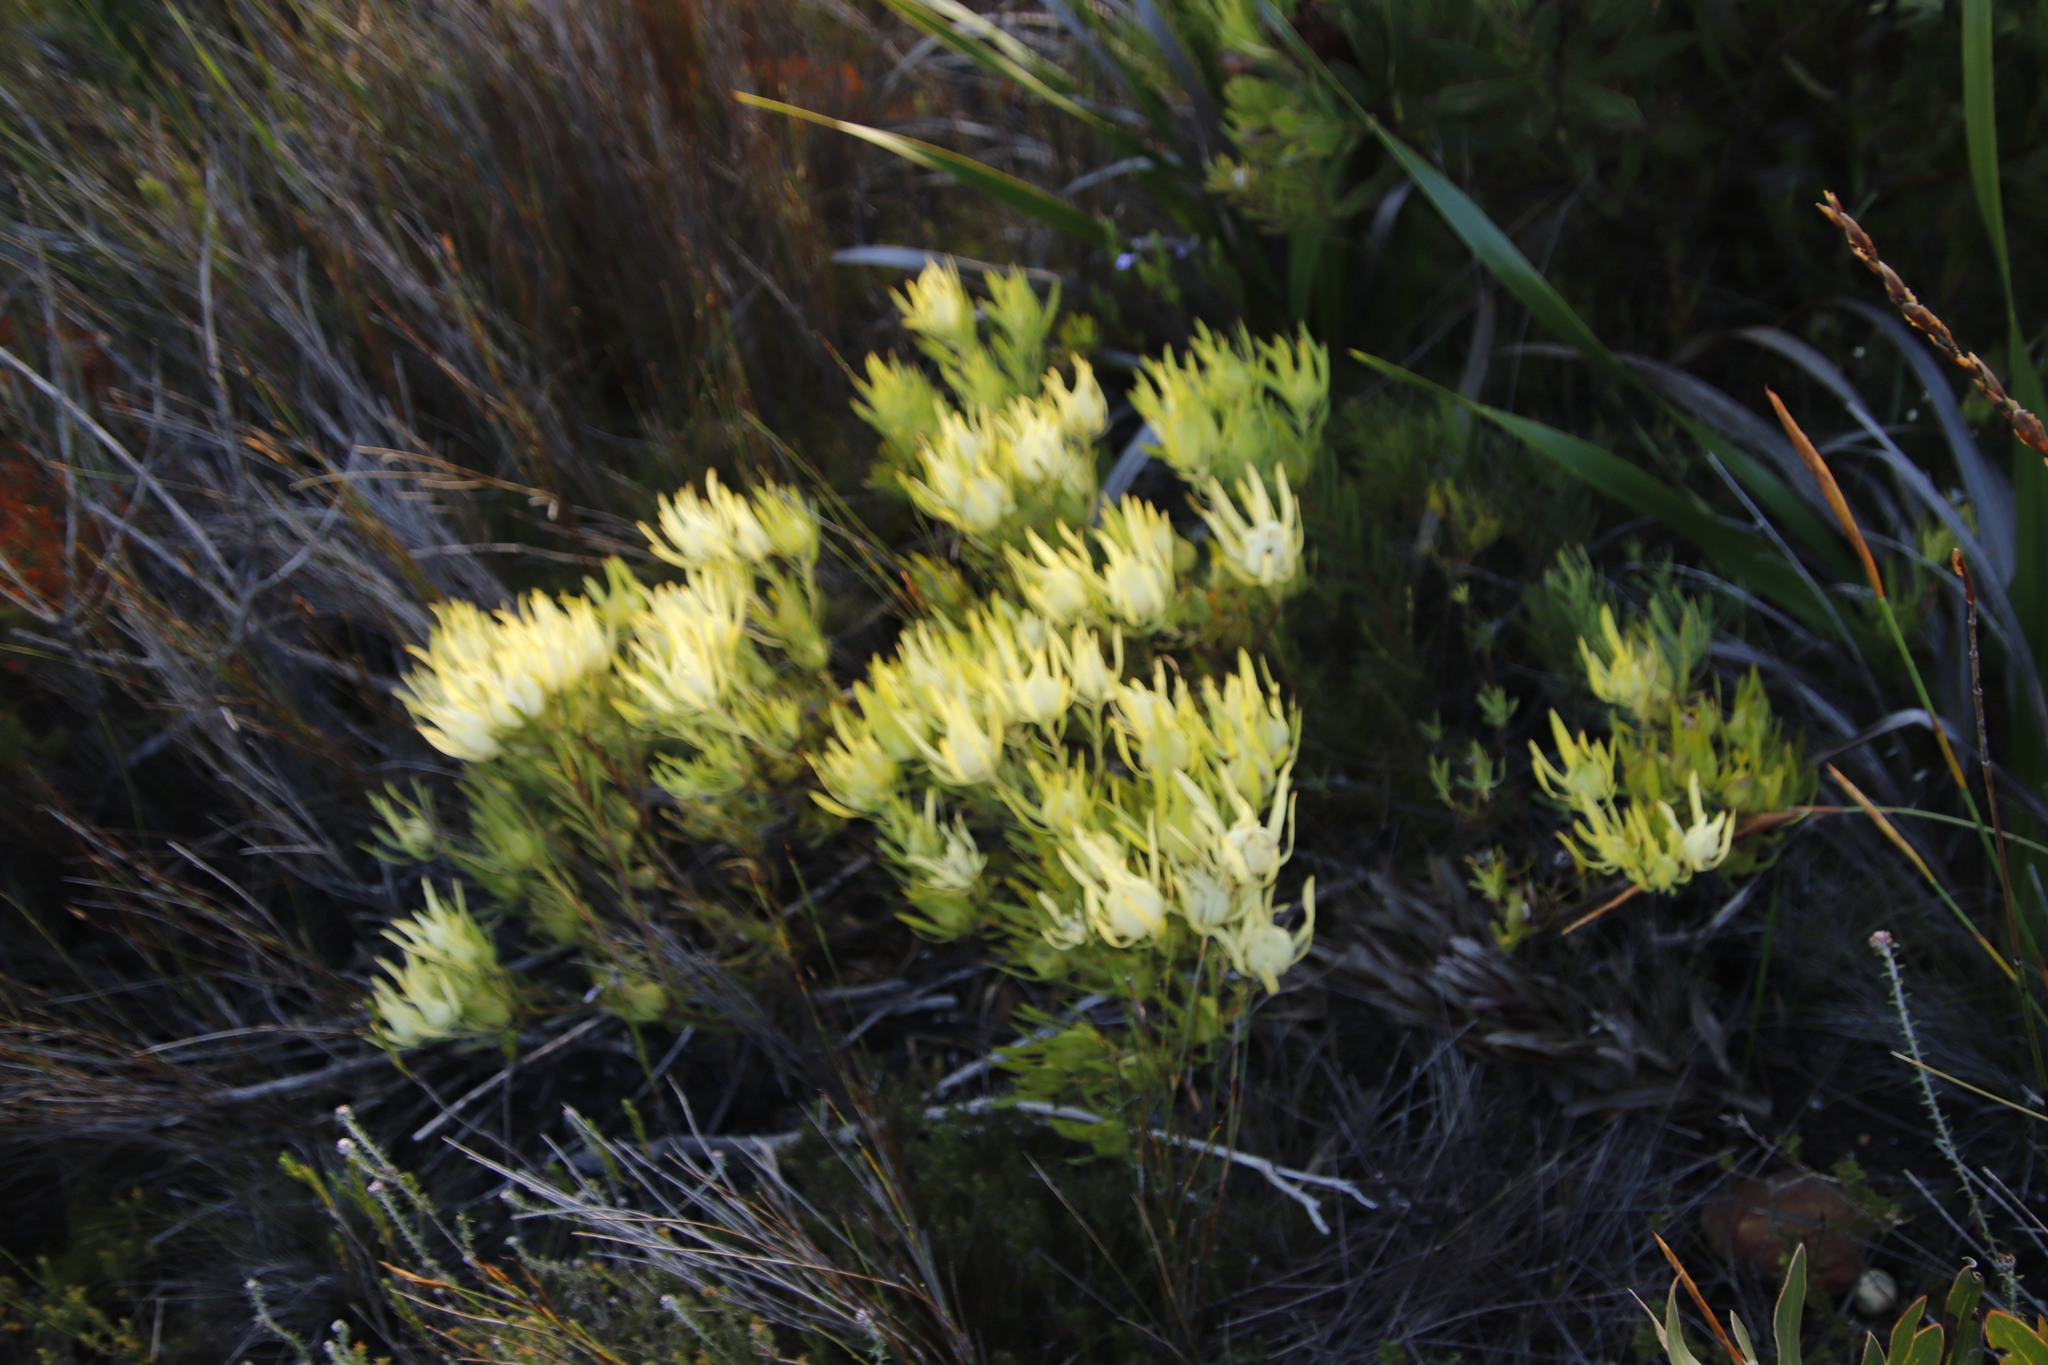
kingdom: Plantae
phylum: Tracheophyta
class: Magnoliopsida
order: Proteales
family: Proteaceae
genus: Leucadendron
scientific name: Leucadendron salignum
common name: Common sunshine conebush
